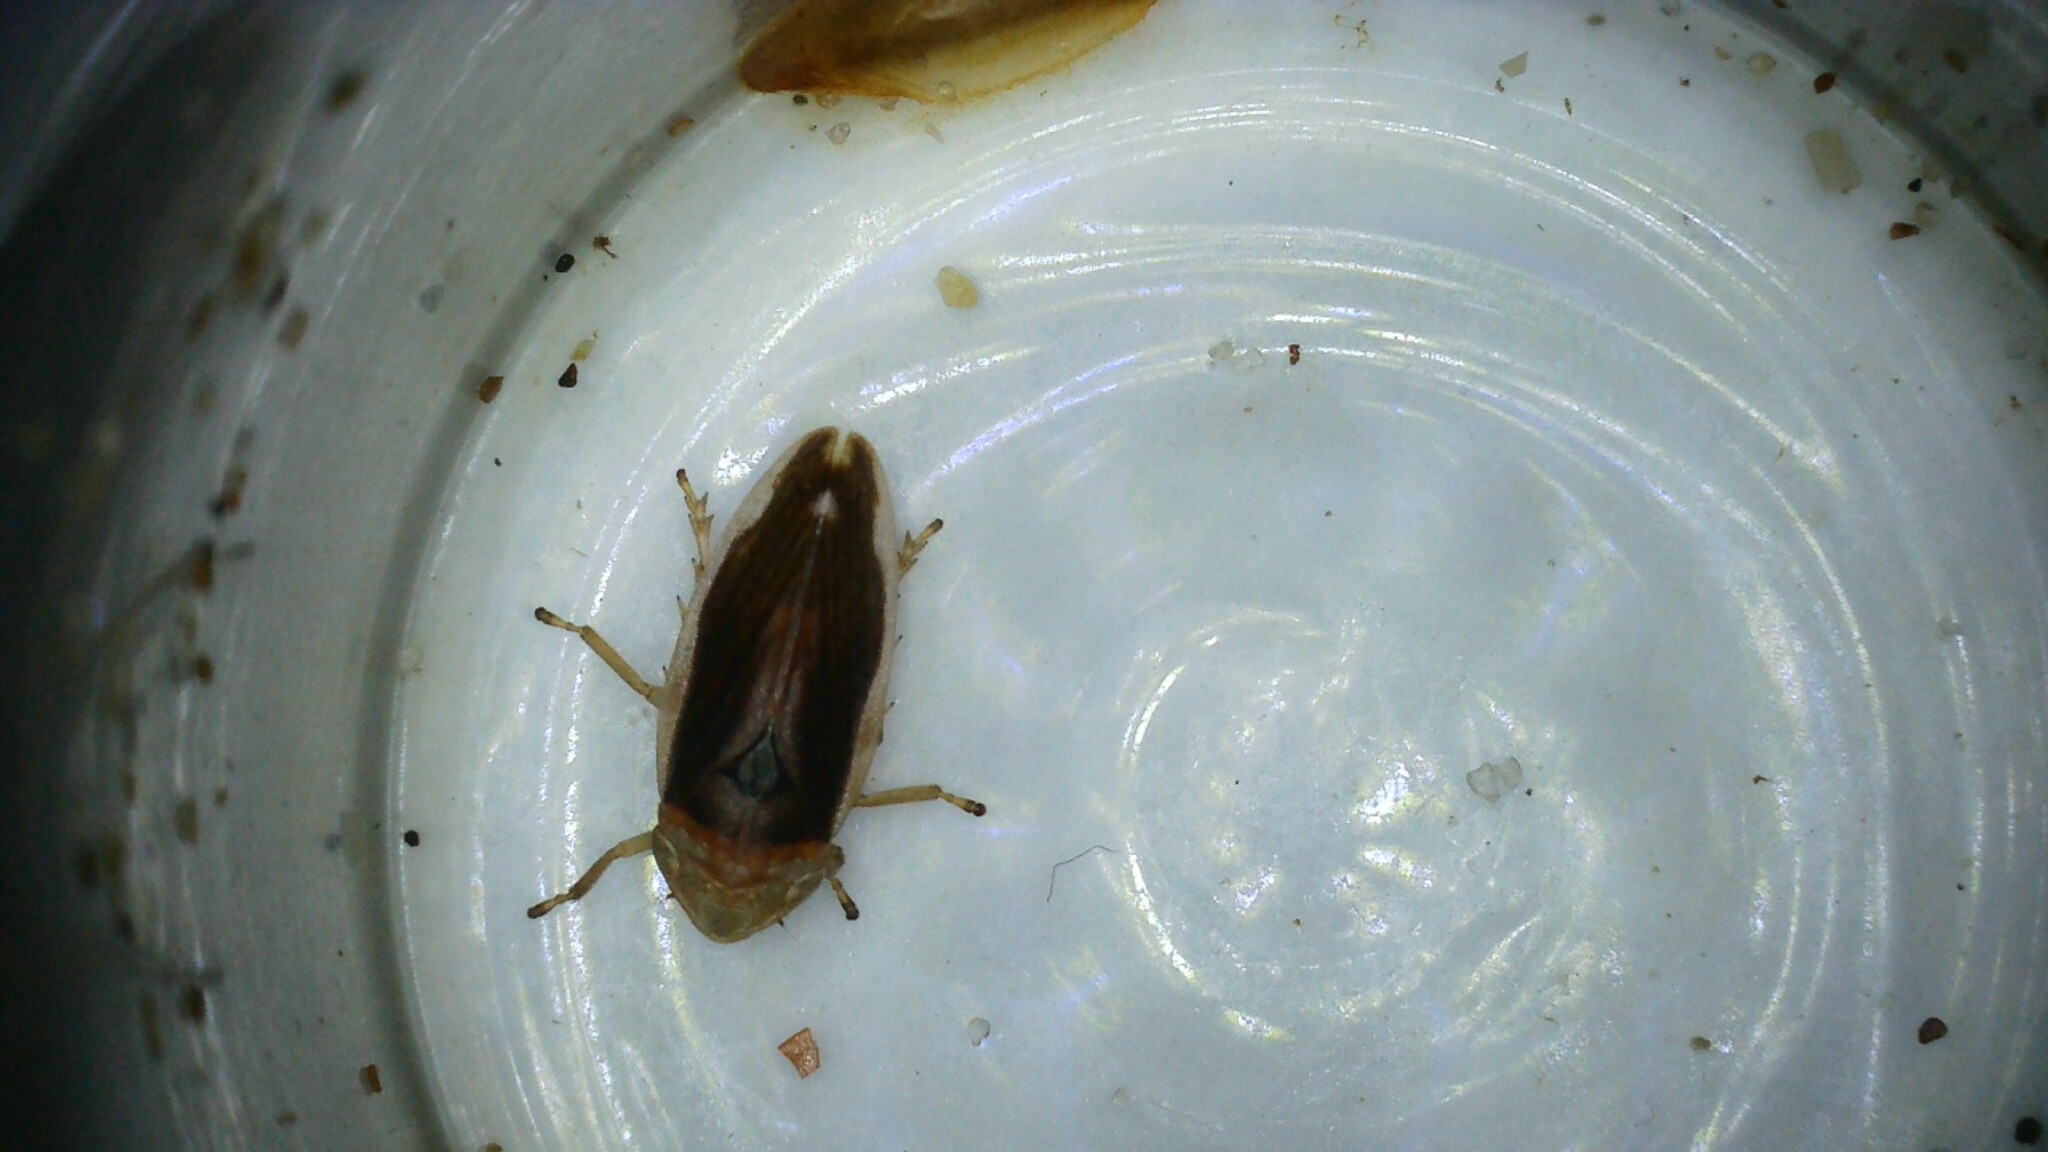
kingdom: Animalia
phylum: Arthropoda
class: Insecta
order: Hemiptera
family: Aphrophoridae
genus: Philaenus
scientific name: Philaenus spumarius
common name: Meadow spittlebug
